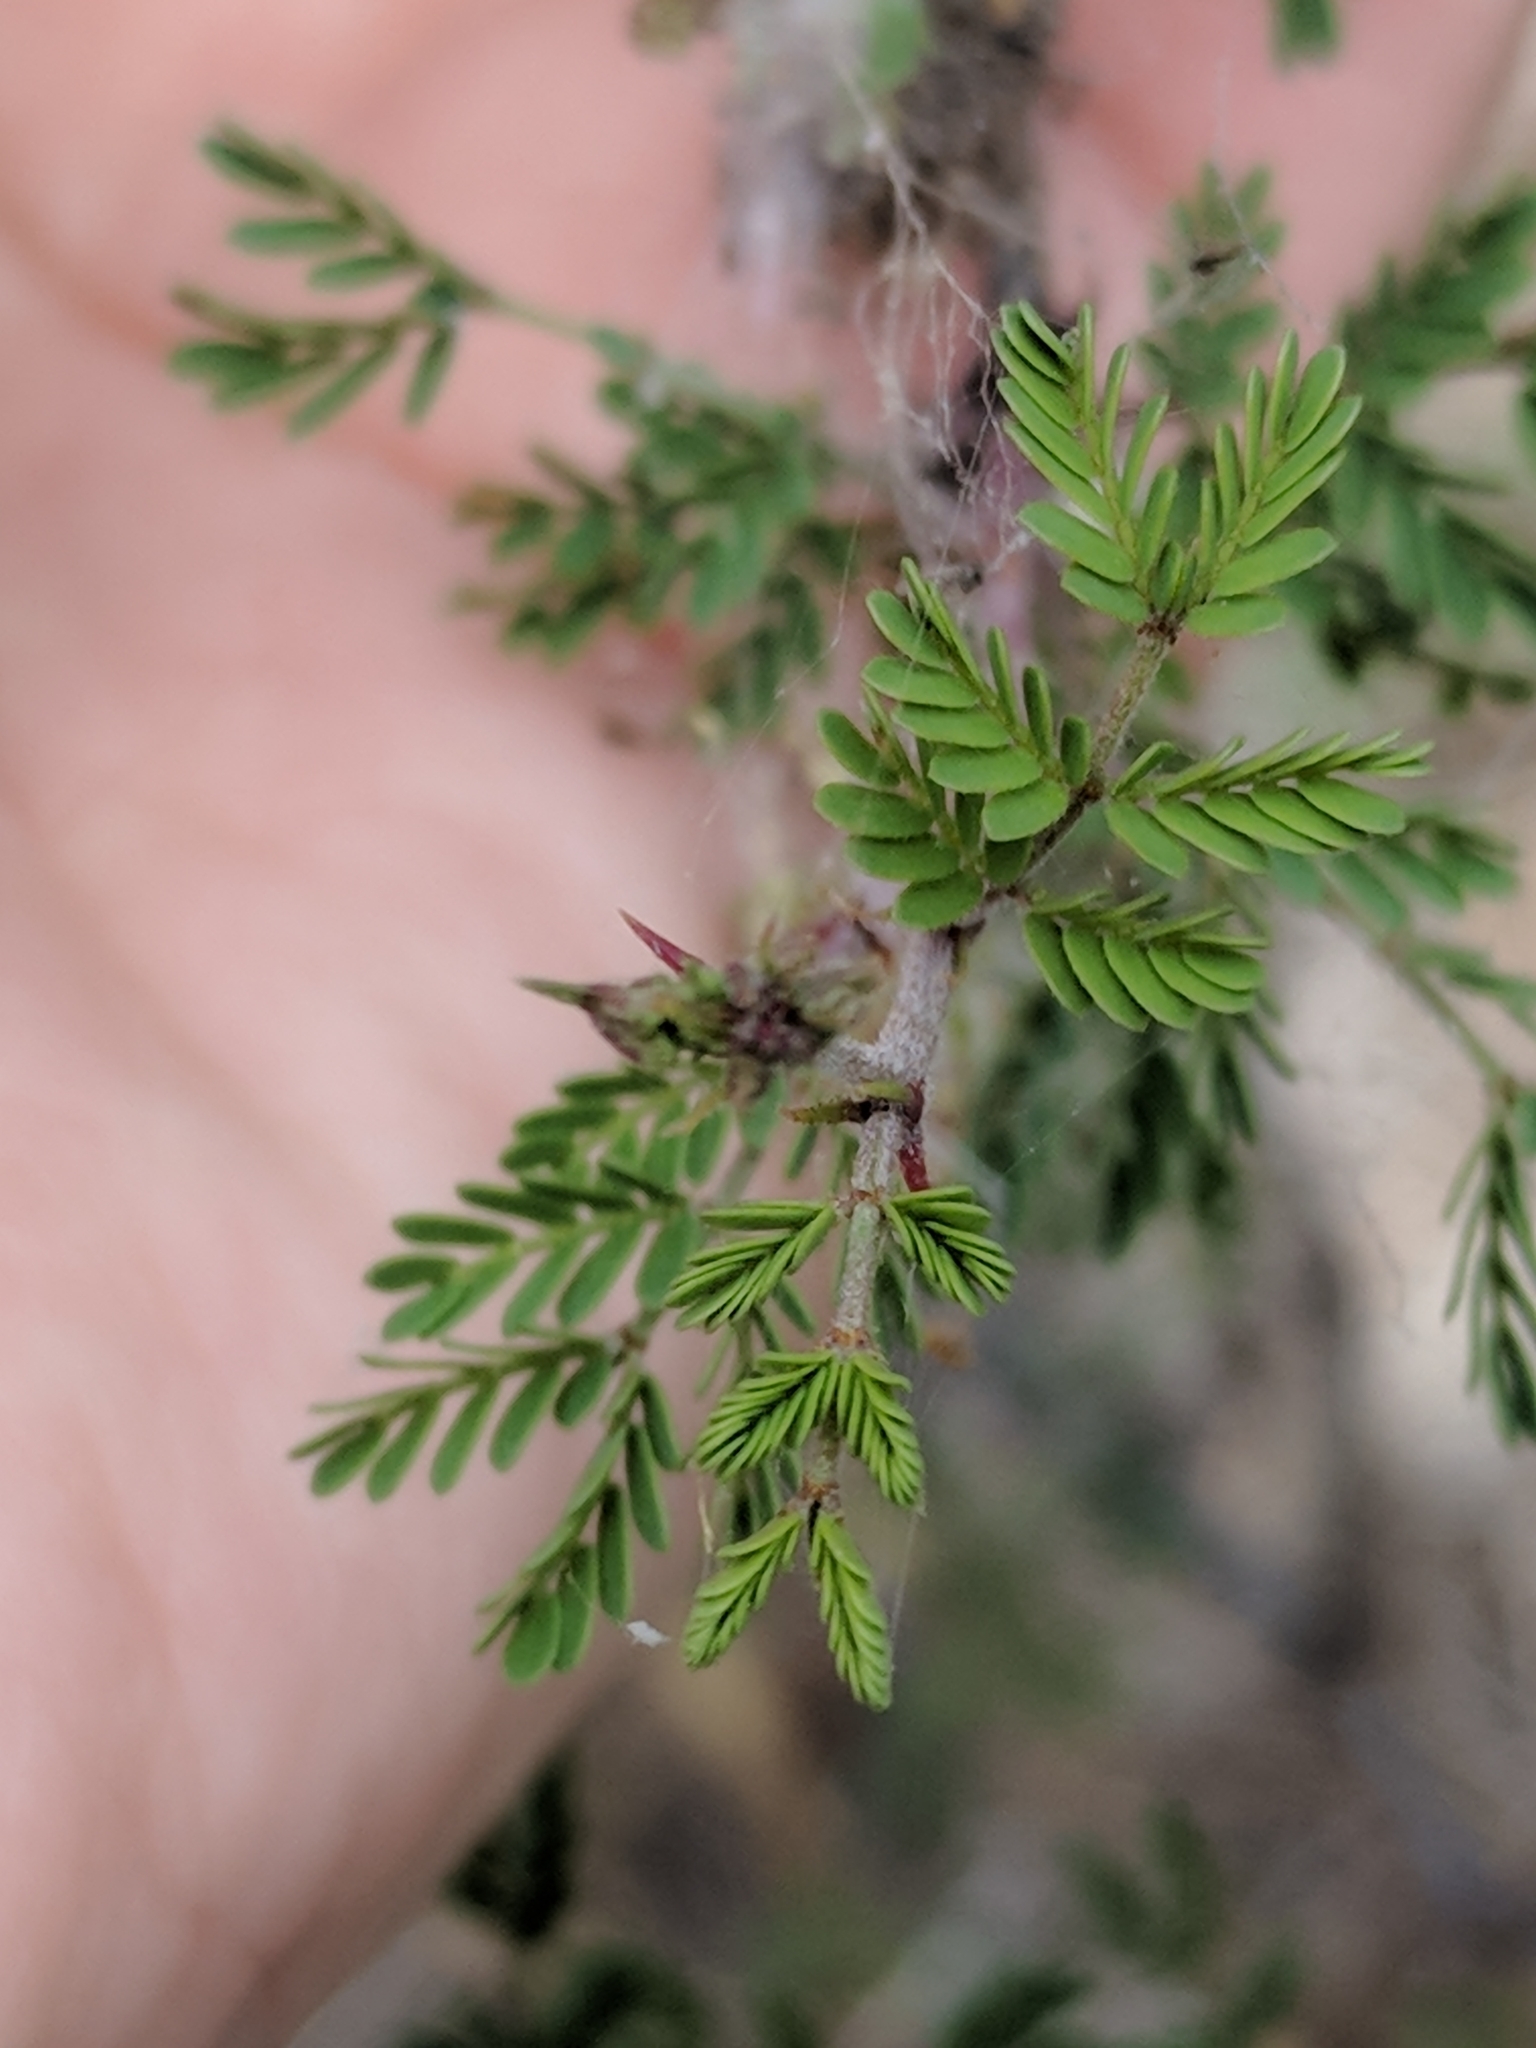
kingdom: Plantae
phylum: Tracheophyta
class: Magnoliopsida
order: Fabales
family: Fabaceae
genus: Mimosa
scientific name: Mimosa texana
